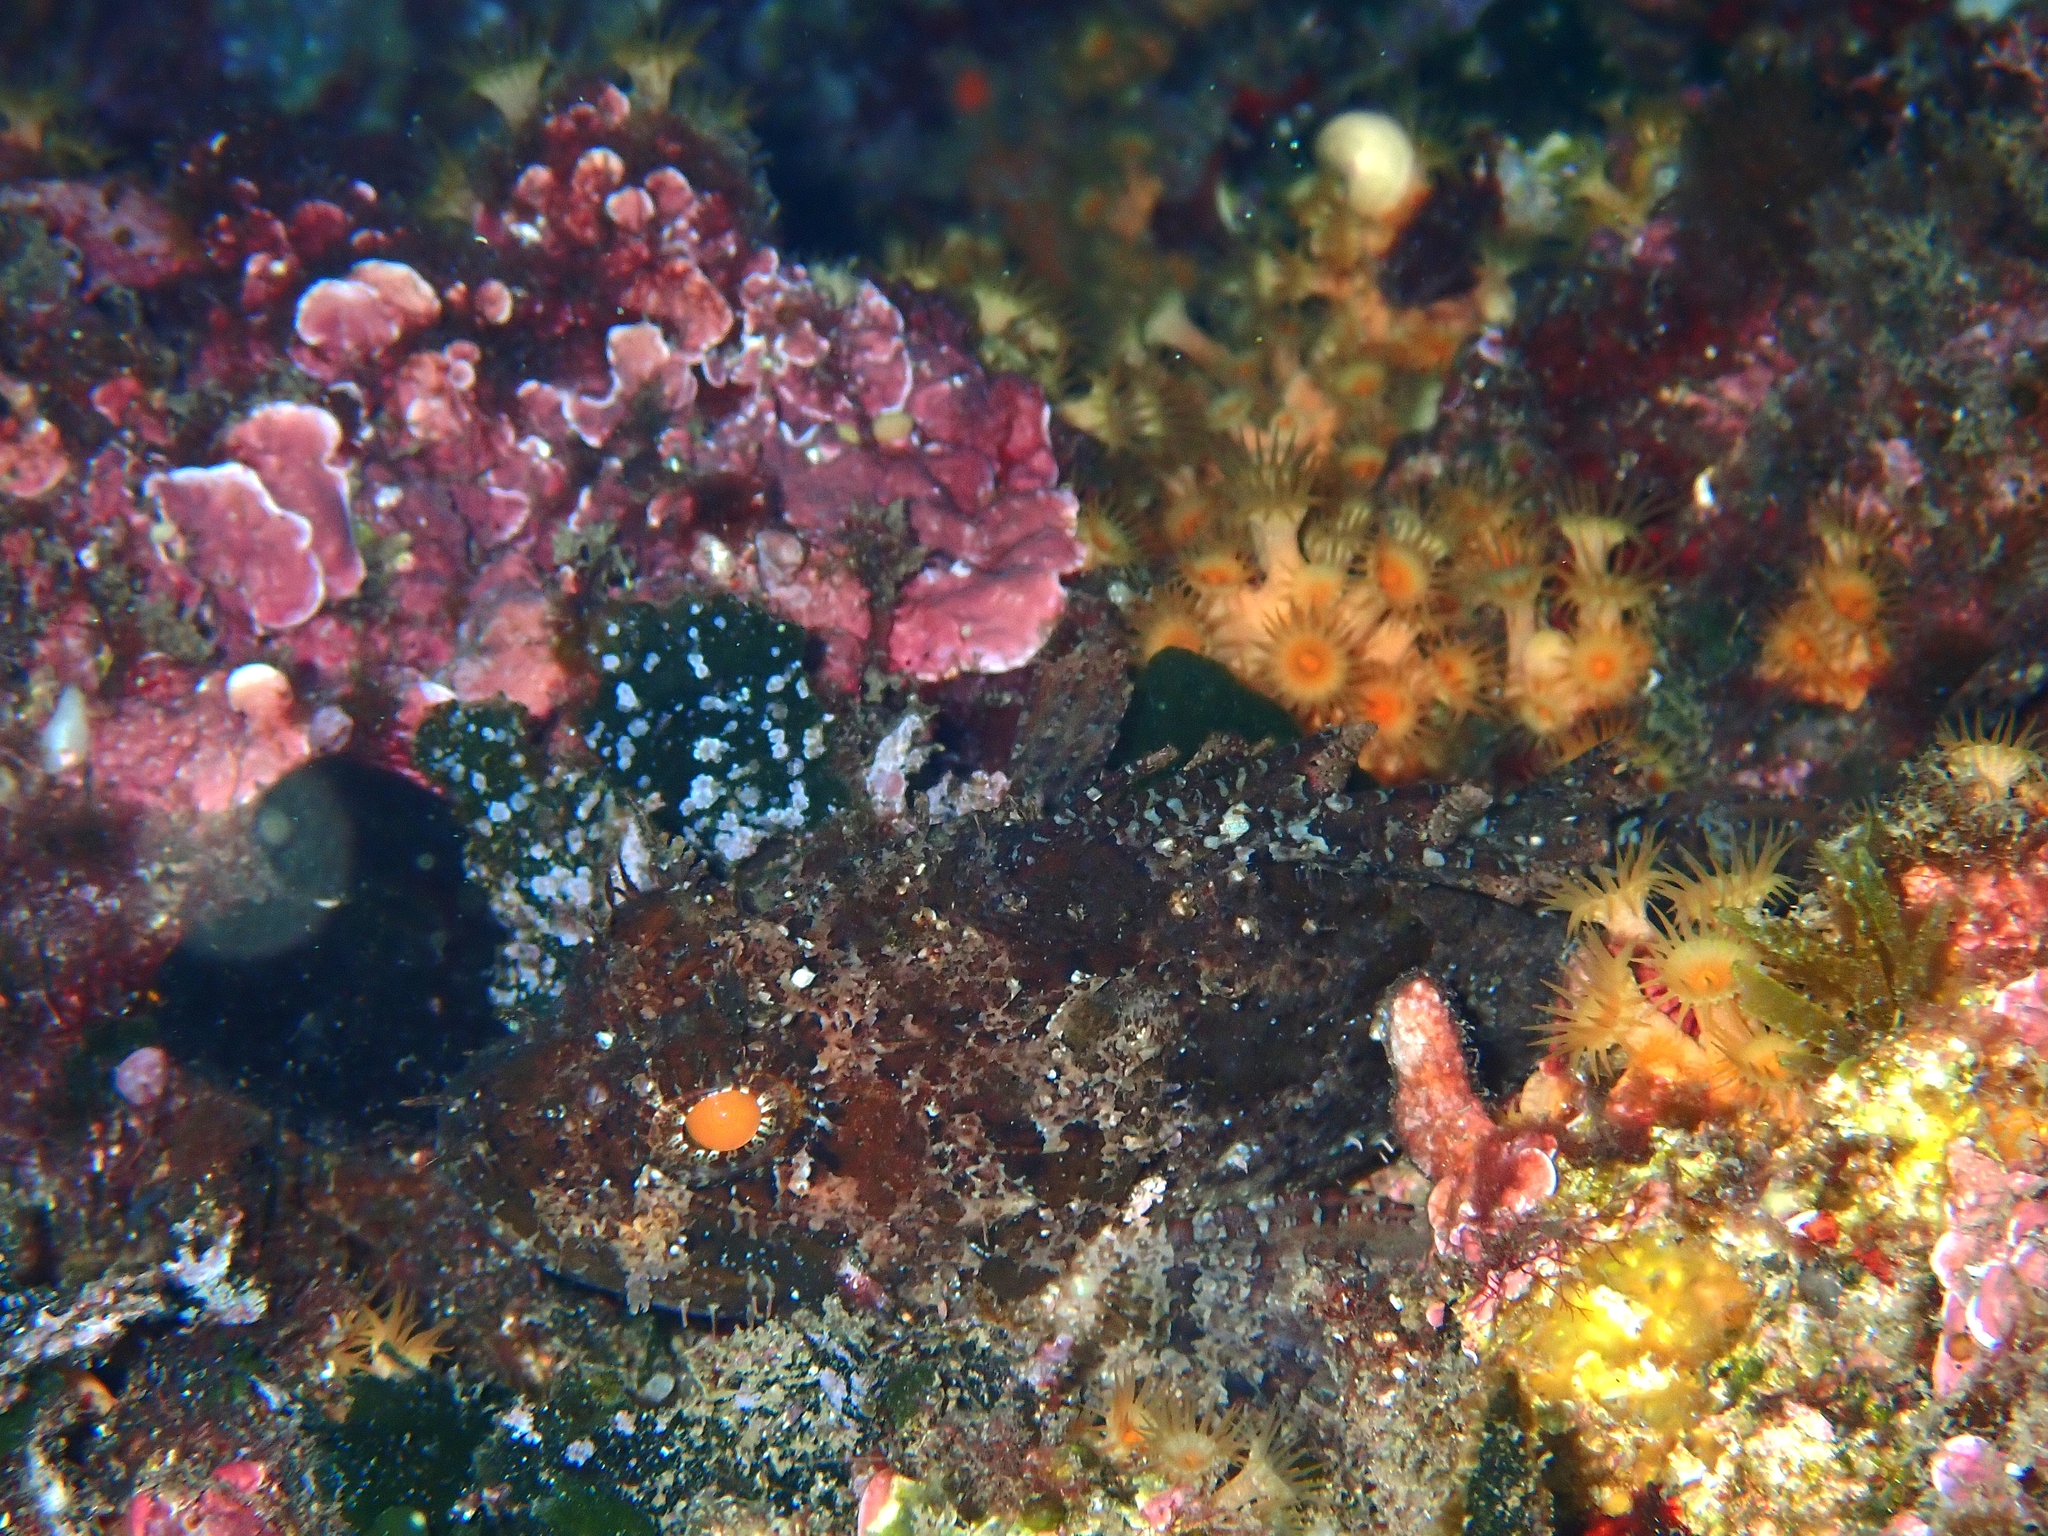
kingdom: Animalia
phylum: Chordata
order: Scorpaeniformes
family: Scorpaenidae
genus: Scorpaena
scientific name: Scorpaena porcus
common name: Black scorpionfish
